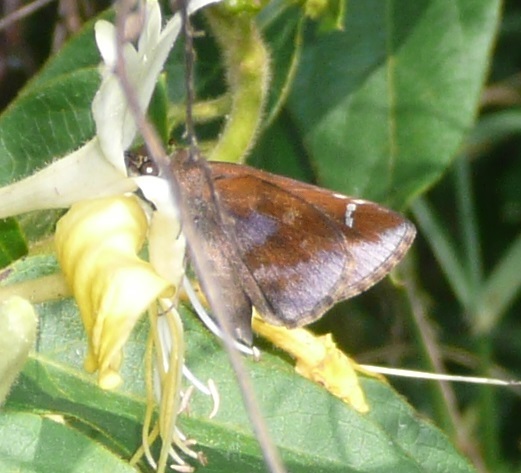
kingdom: Animalia
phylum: Arthropoda
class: Insecta
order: Lepidoptera
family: Hesperiidae
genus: Lerema
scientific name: Lerema accius
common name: Clouded skipper
